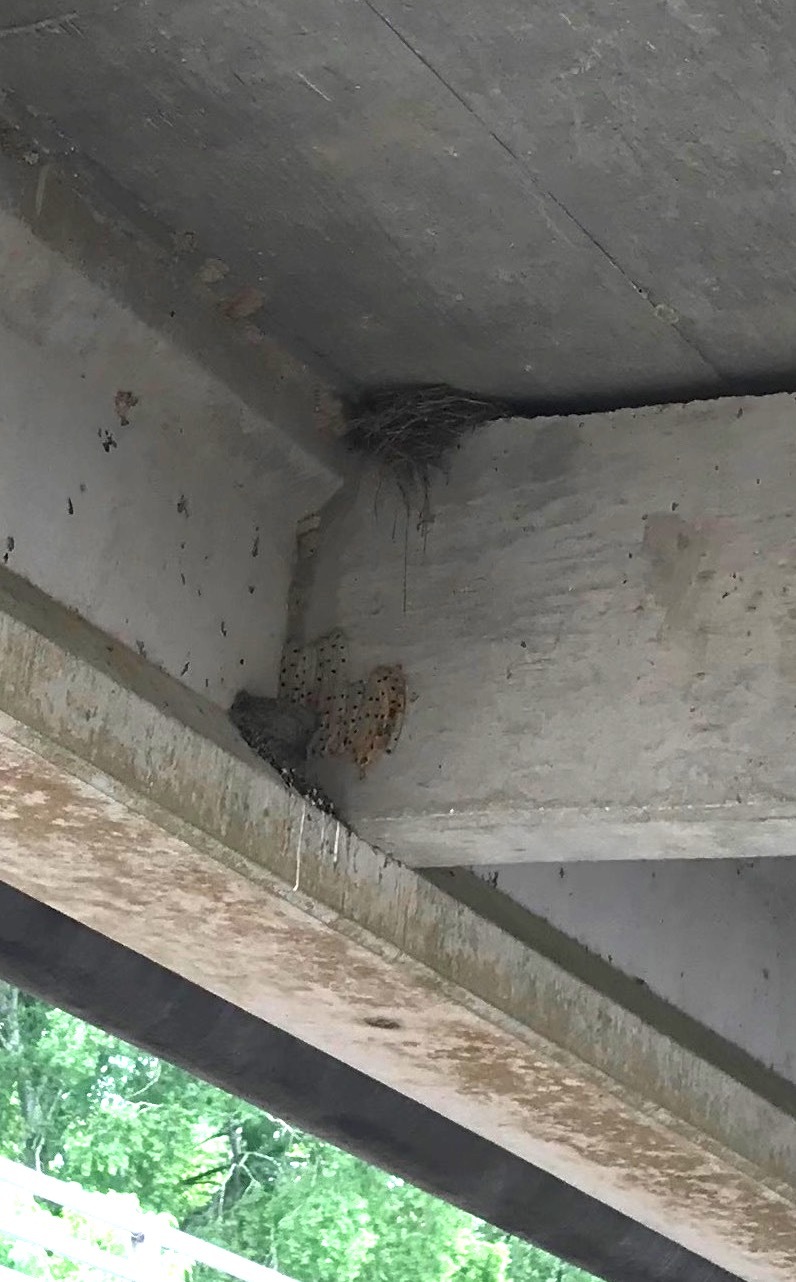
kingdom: Animalia
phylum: Chordata
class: Aves
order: Passeriformes
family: Hirundinidae
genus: Hirundo
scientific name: Hirundo rustica
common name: Barn swallow
